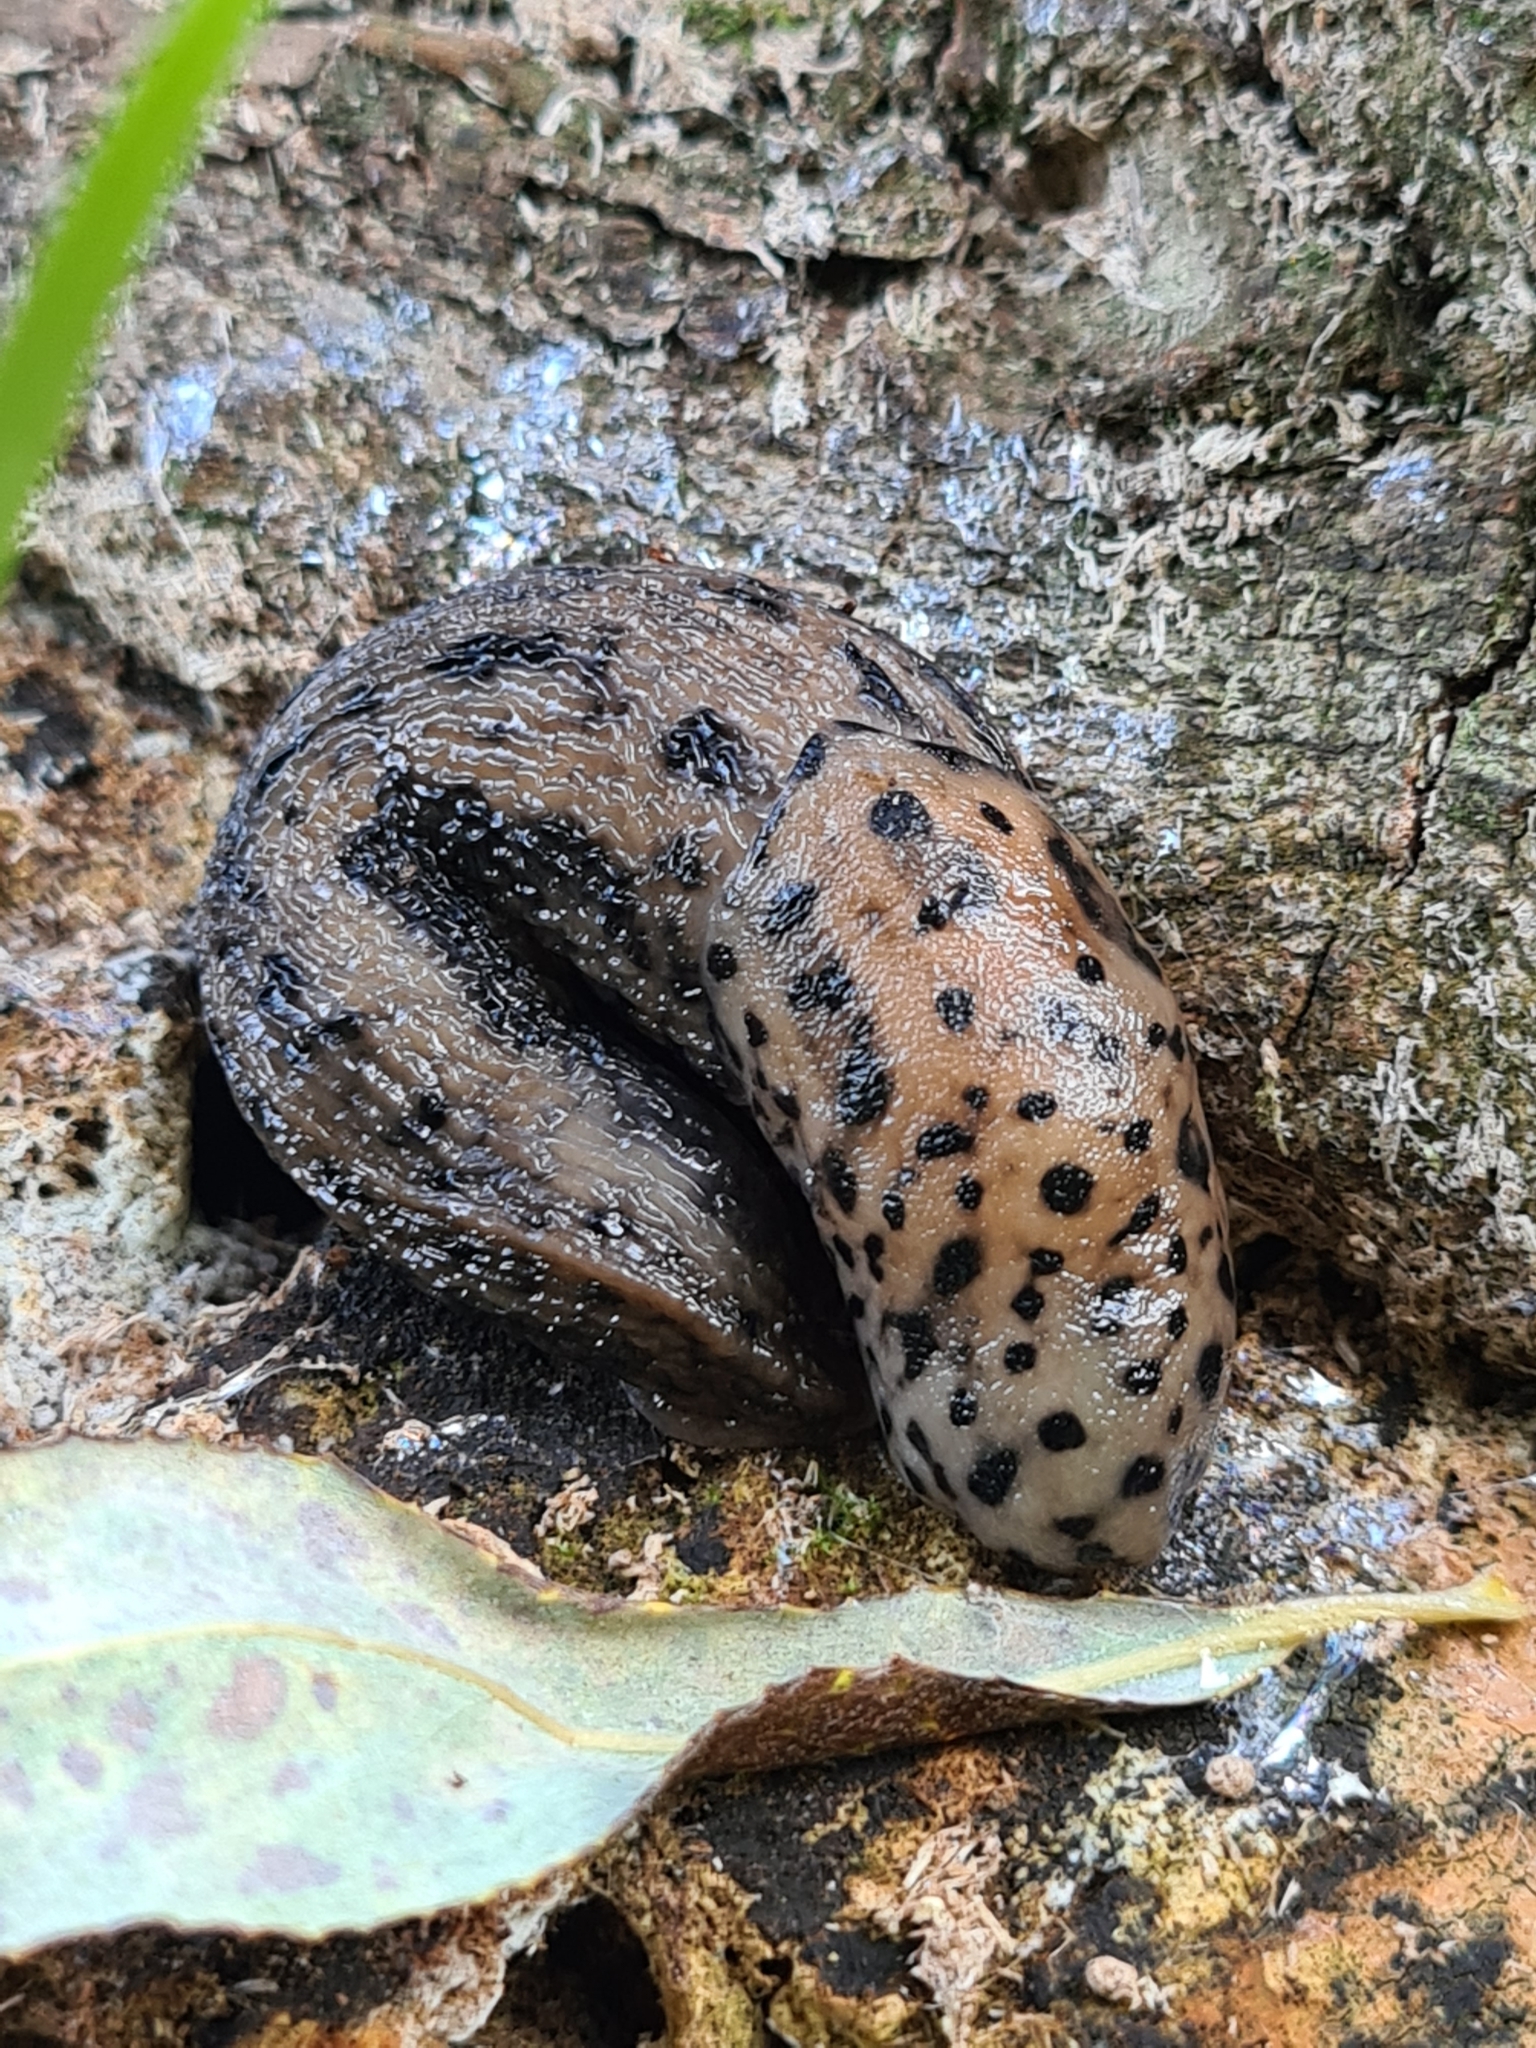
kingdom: Animalia
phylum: Mollusca
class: Gastropoda
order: Stylommatophora
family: Limacidae
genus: Limax
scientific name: Limax maximus
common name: Great grey slug
